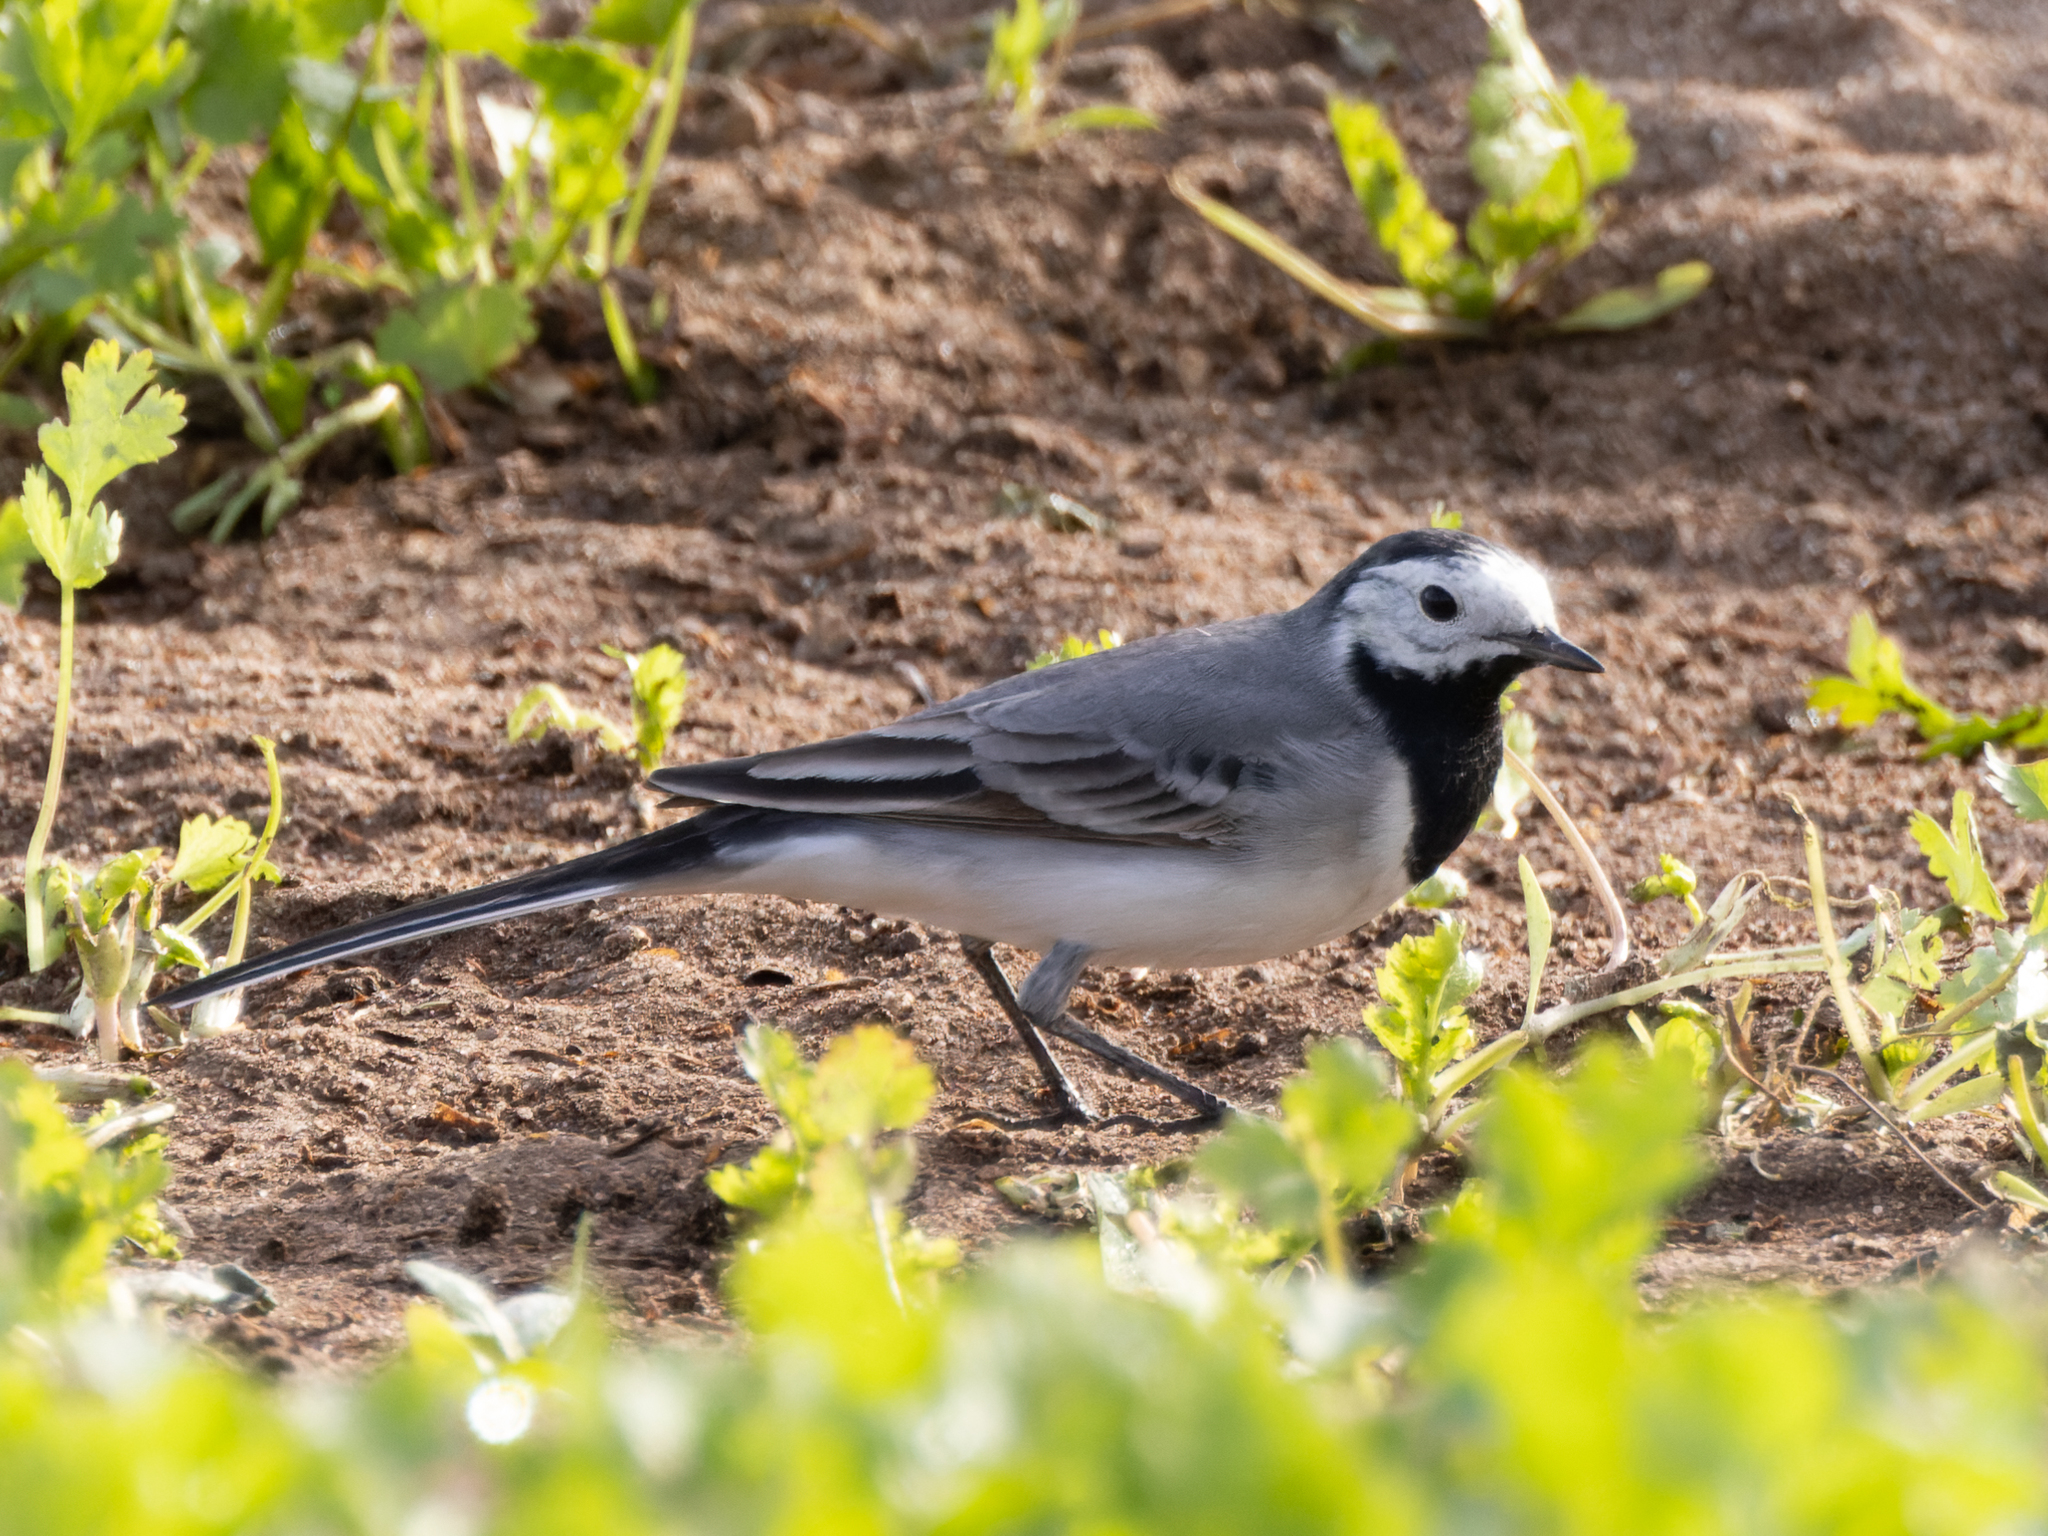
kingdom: Animalia
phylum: Chordata
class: Aves
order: Passeriformes
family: Motacillidae
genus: Motacilla
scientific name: Motacilla alba
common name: White wagtail
